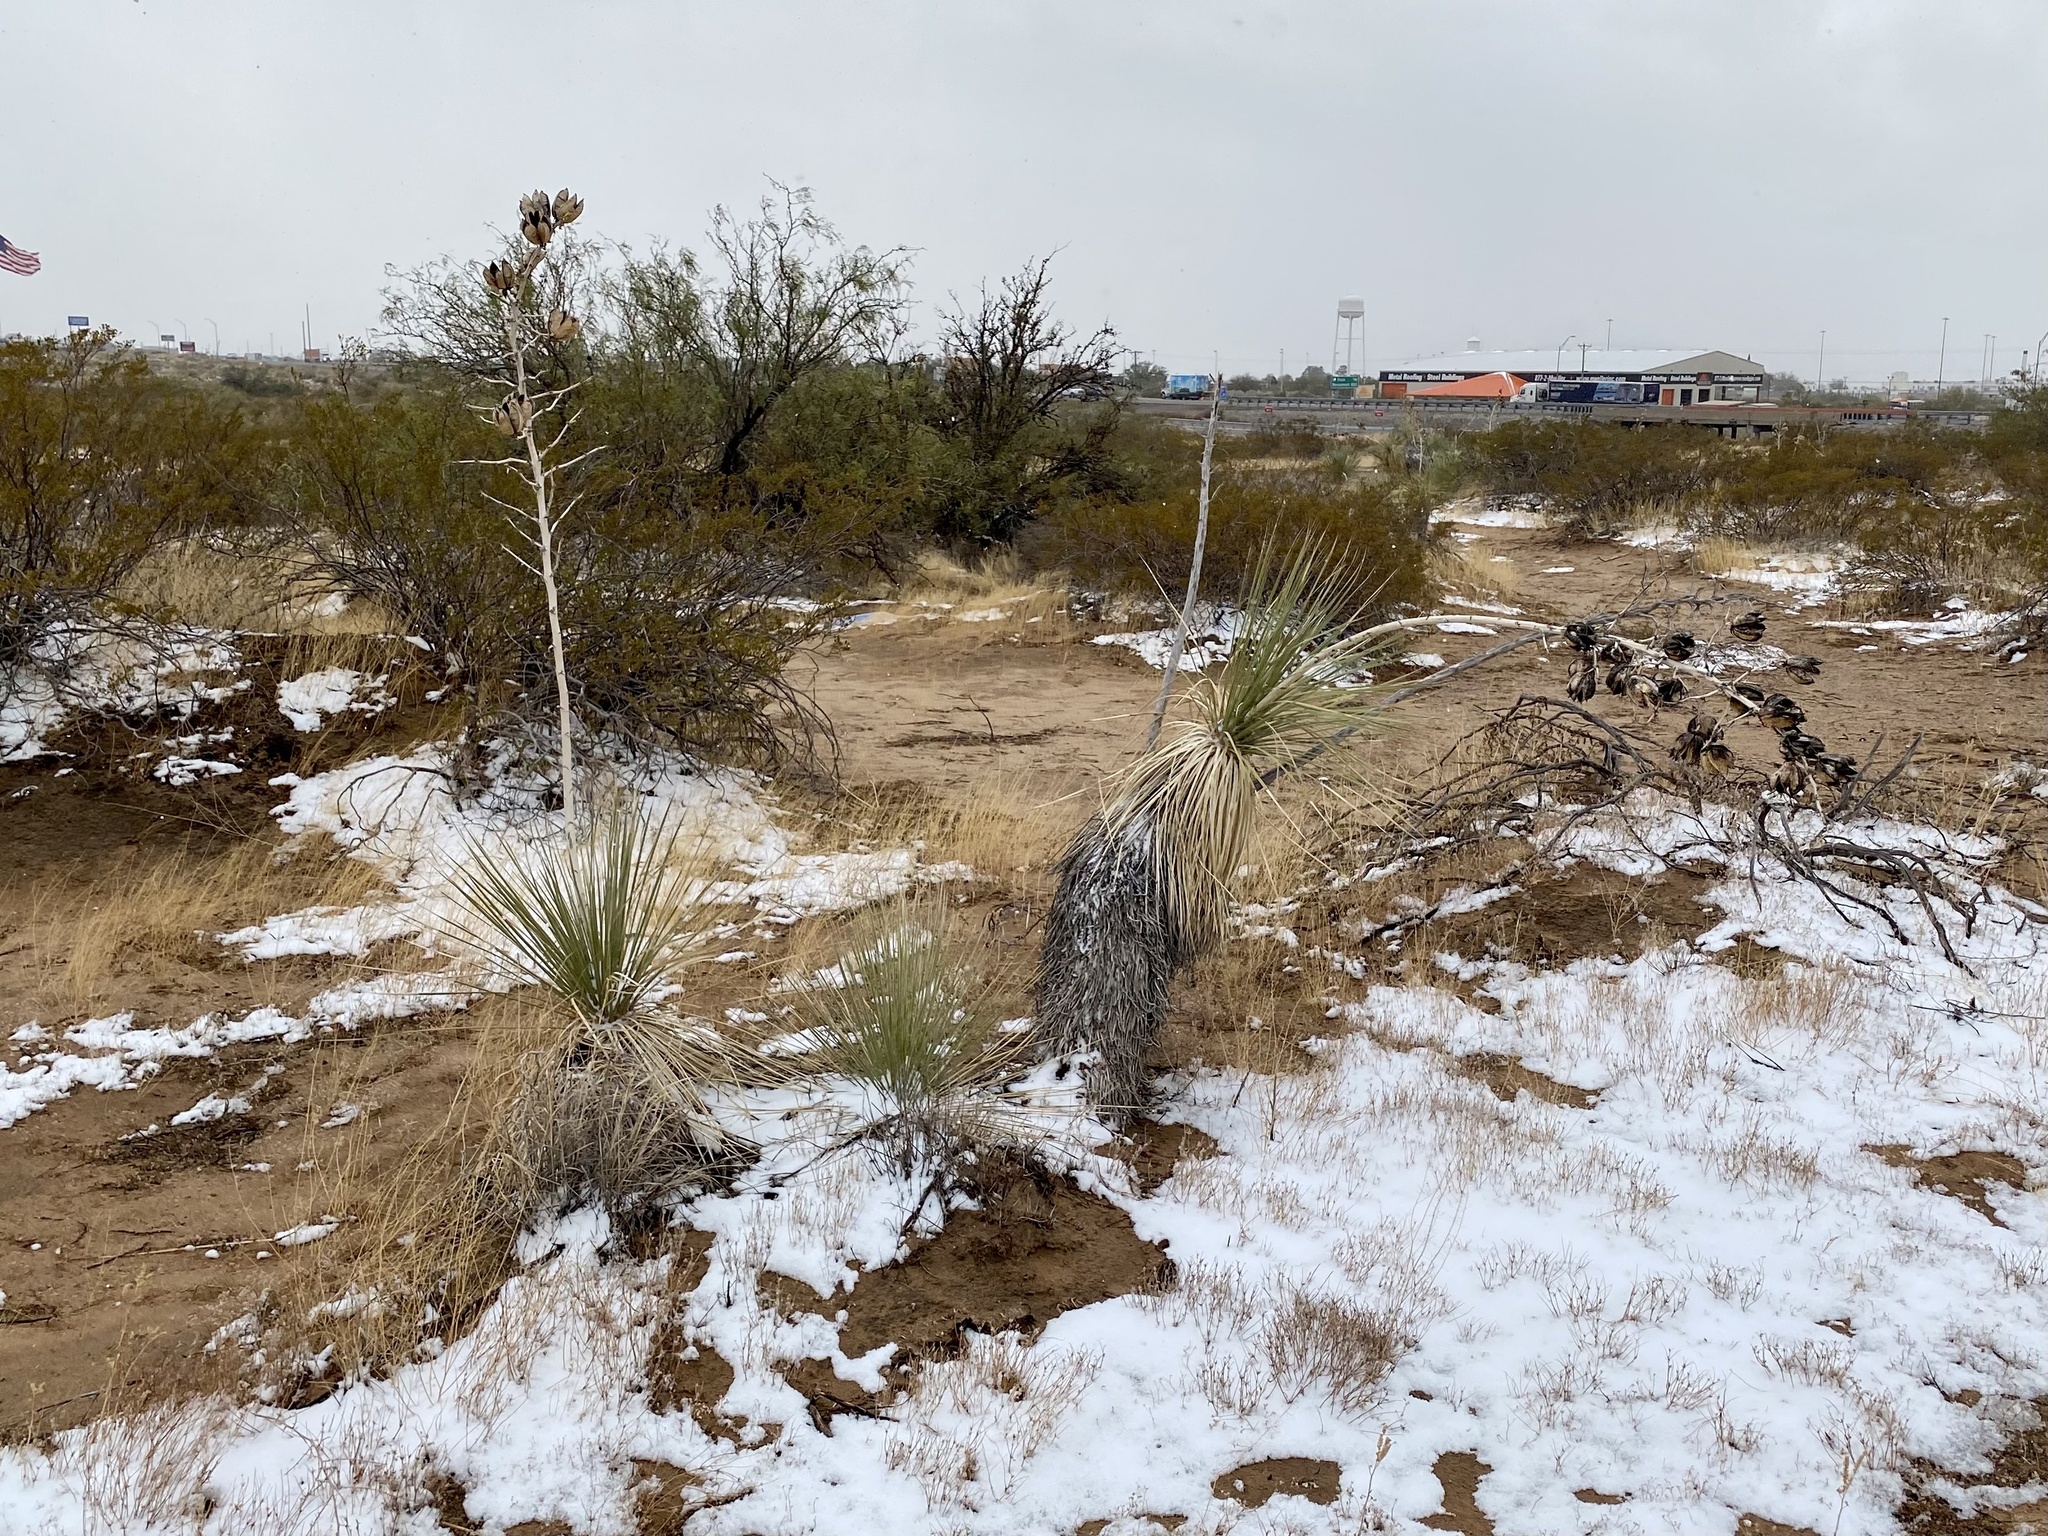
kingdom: Plantae
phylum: Tracheophyta
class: Liliopsida
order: Asparagales
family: Asparagaceae
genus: Yucca
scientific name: Yucca elata
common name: Palmella
